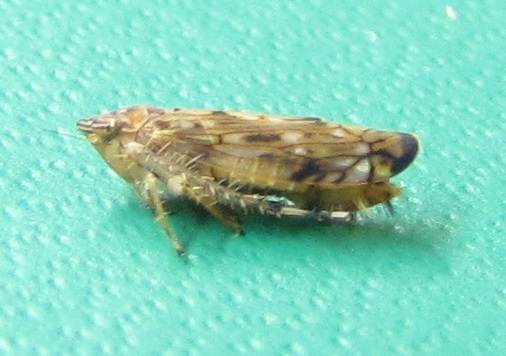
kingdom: Animalia
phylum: Arthropoda
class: Insecta
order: Hemiptera
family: Cicadellidae
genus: Scaphoideus
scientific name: Scaphoideus cylindratus
